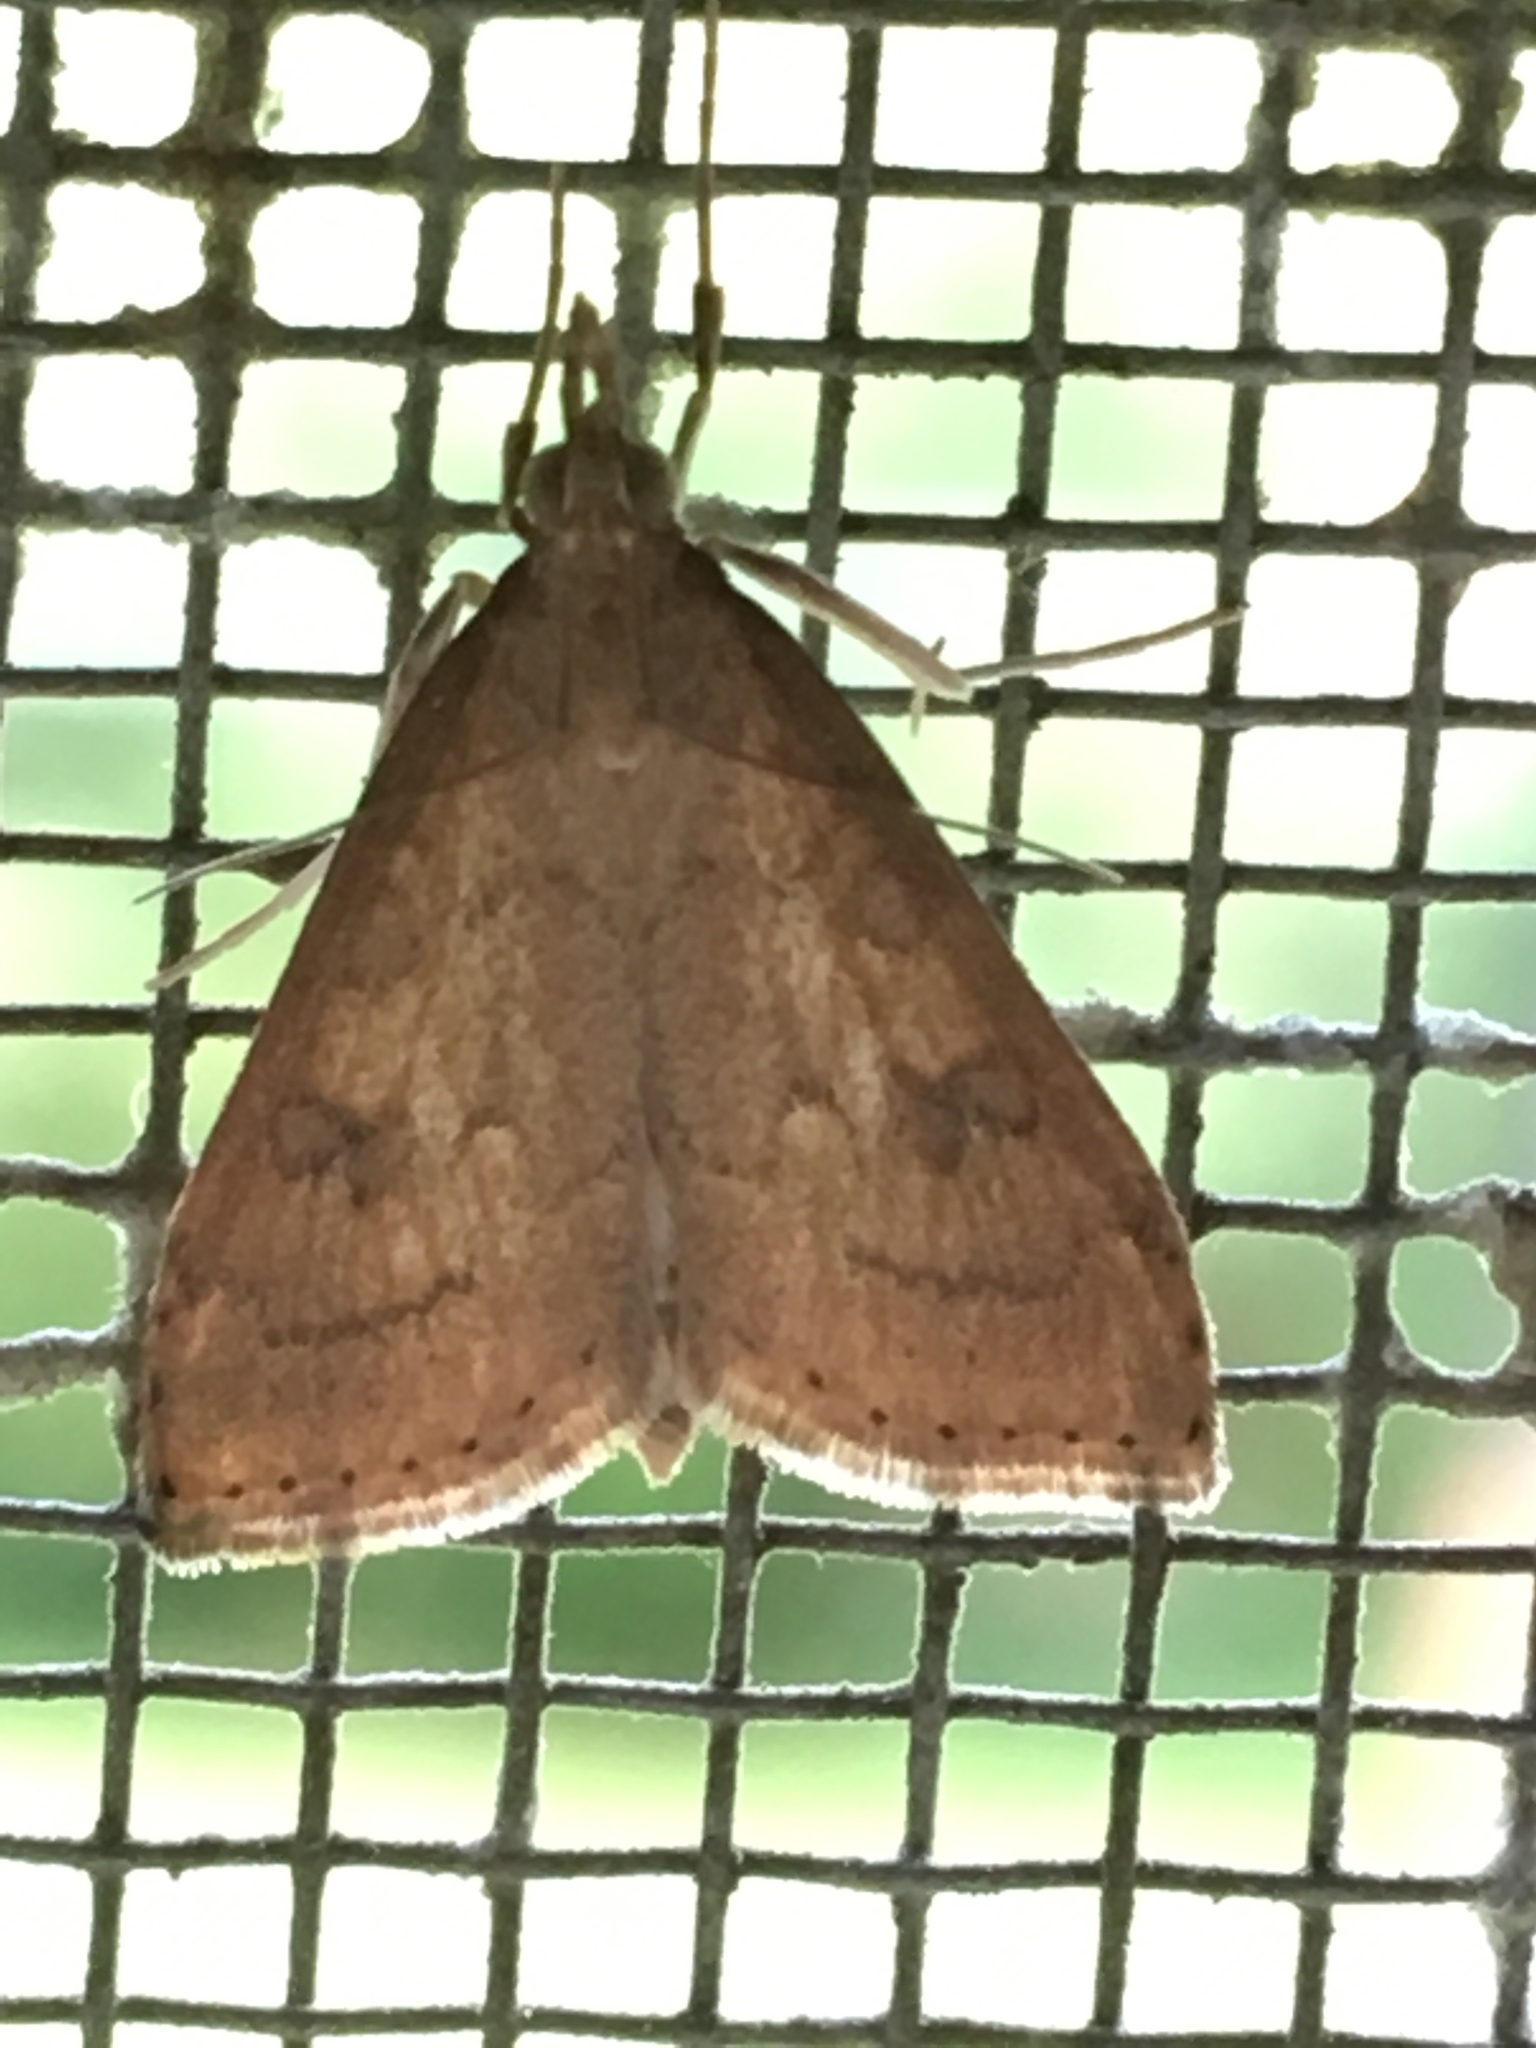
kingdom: Animalia
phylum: Arthropoda
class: Insecta
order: Lepidoptera
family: Crambidae
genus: Udea
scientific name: Udea rubigalis
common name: Celery leaftier moth
